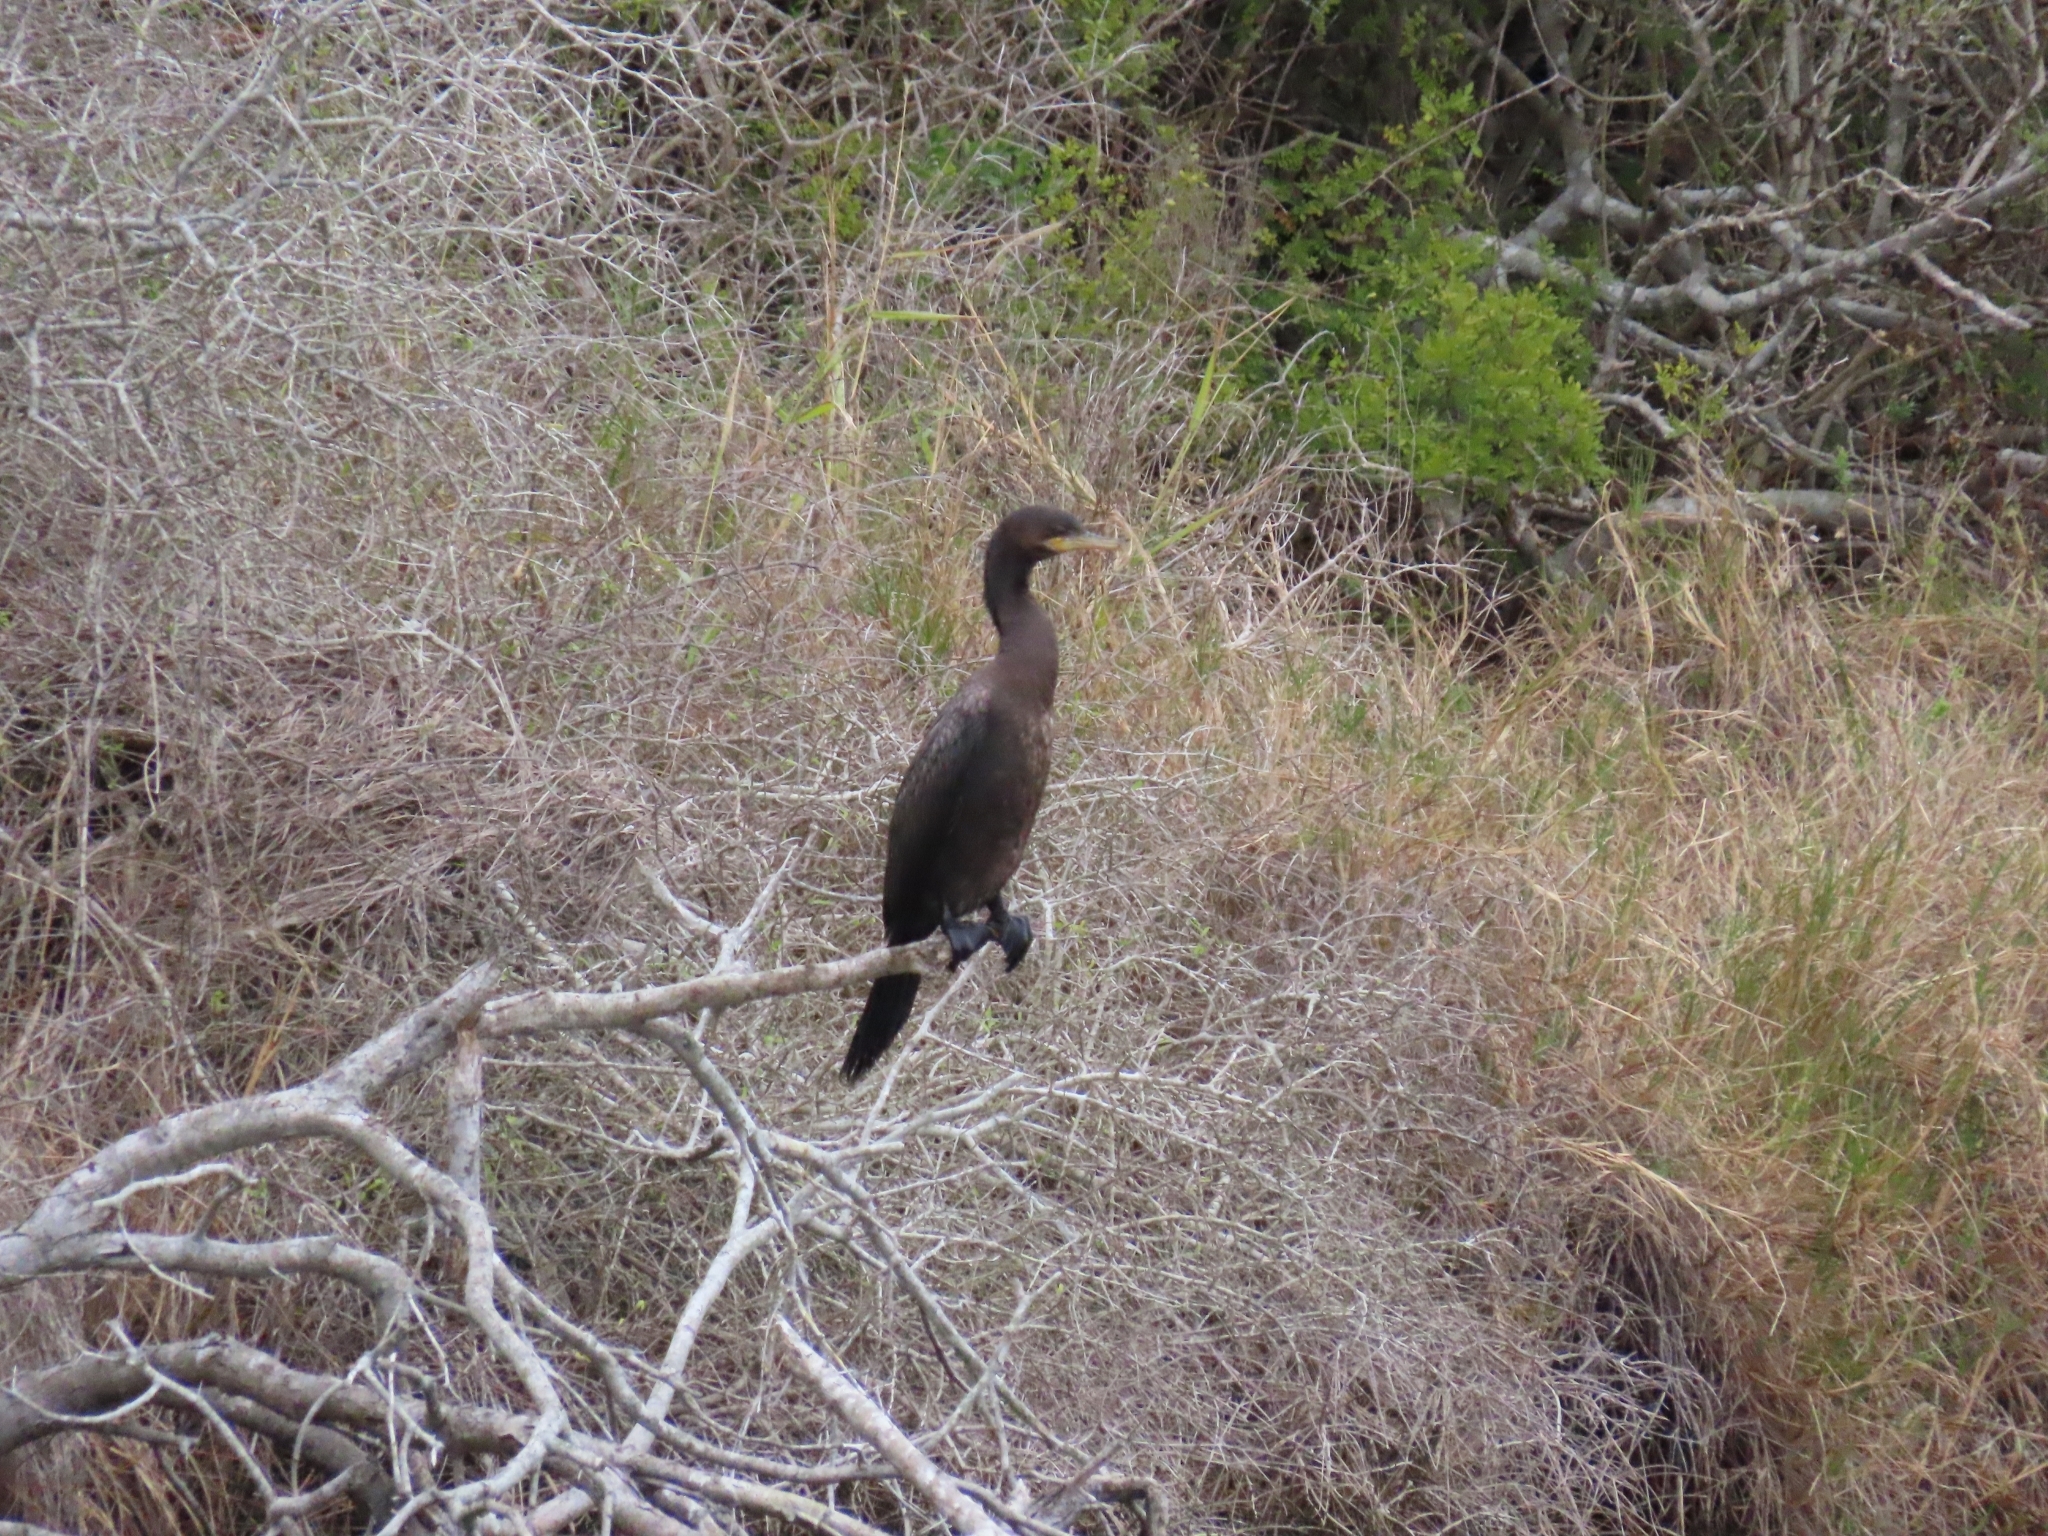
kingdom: Animalia
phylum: Chordata
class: Aves
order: Suliformes
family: Phalacrocoracidae
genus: Phalacrocorax
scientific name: Phalacrocorax brasilianus
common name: Neotropic cormorant
